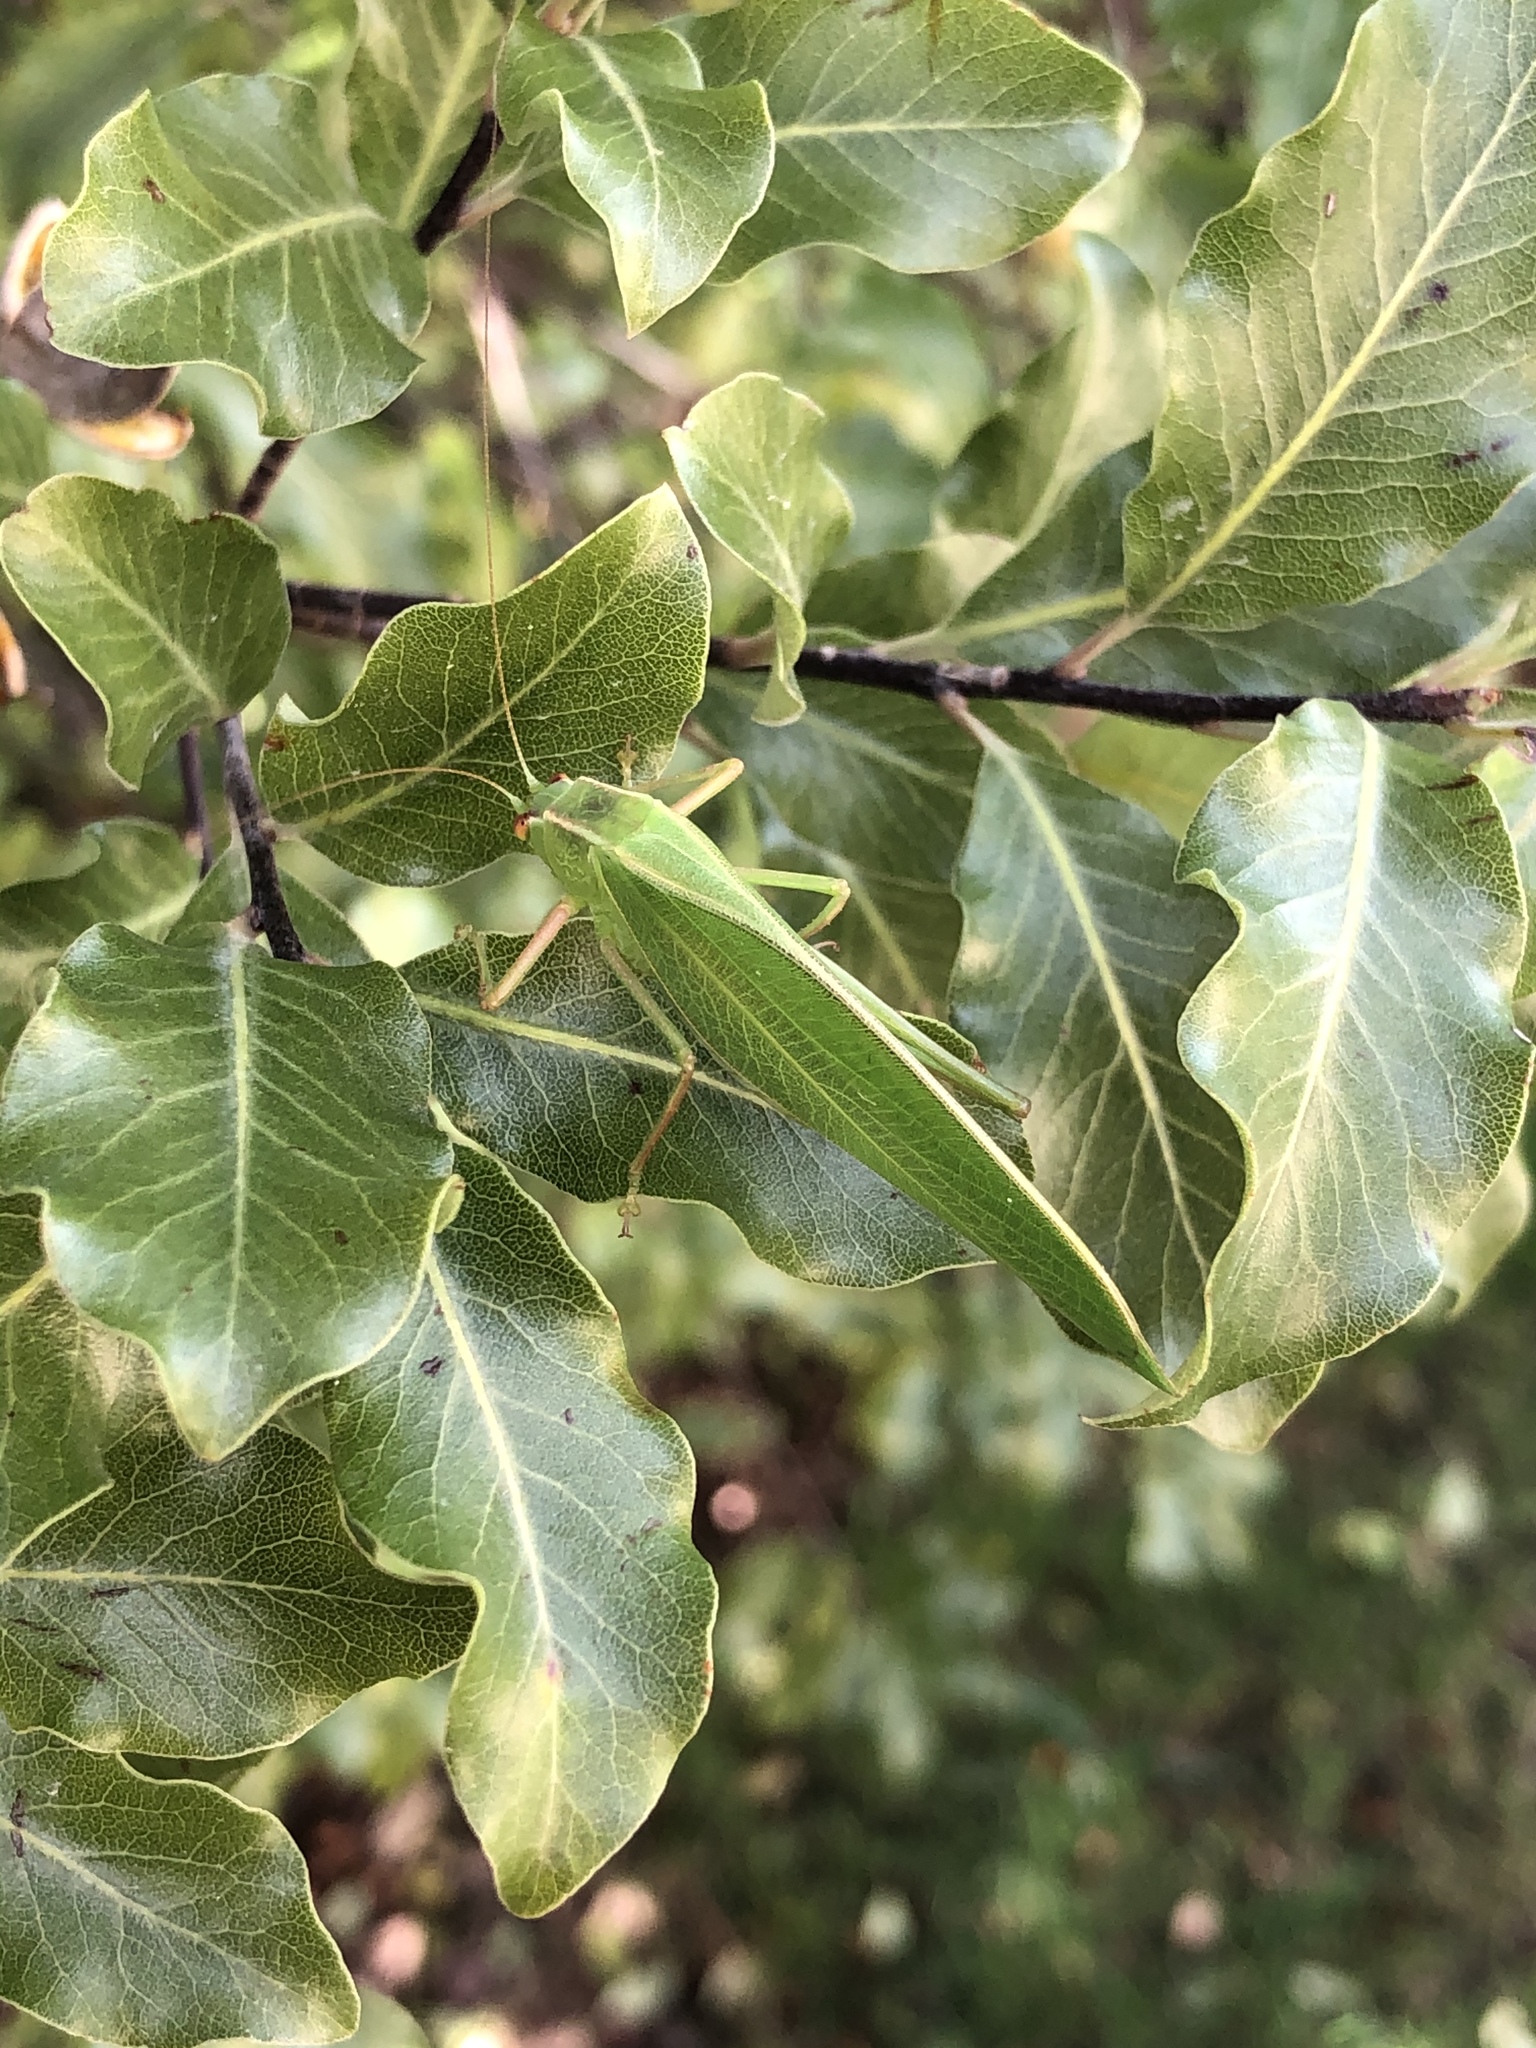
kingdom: Animalia
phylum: Arthropoda
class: Insecta
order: Orthoptera
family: Tettigoniidae
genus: Caedicia
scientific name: Caedicia simplex
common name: Common garden katydid
